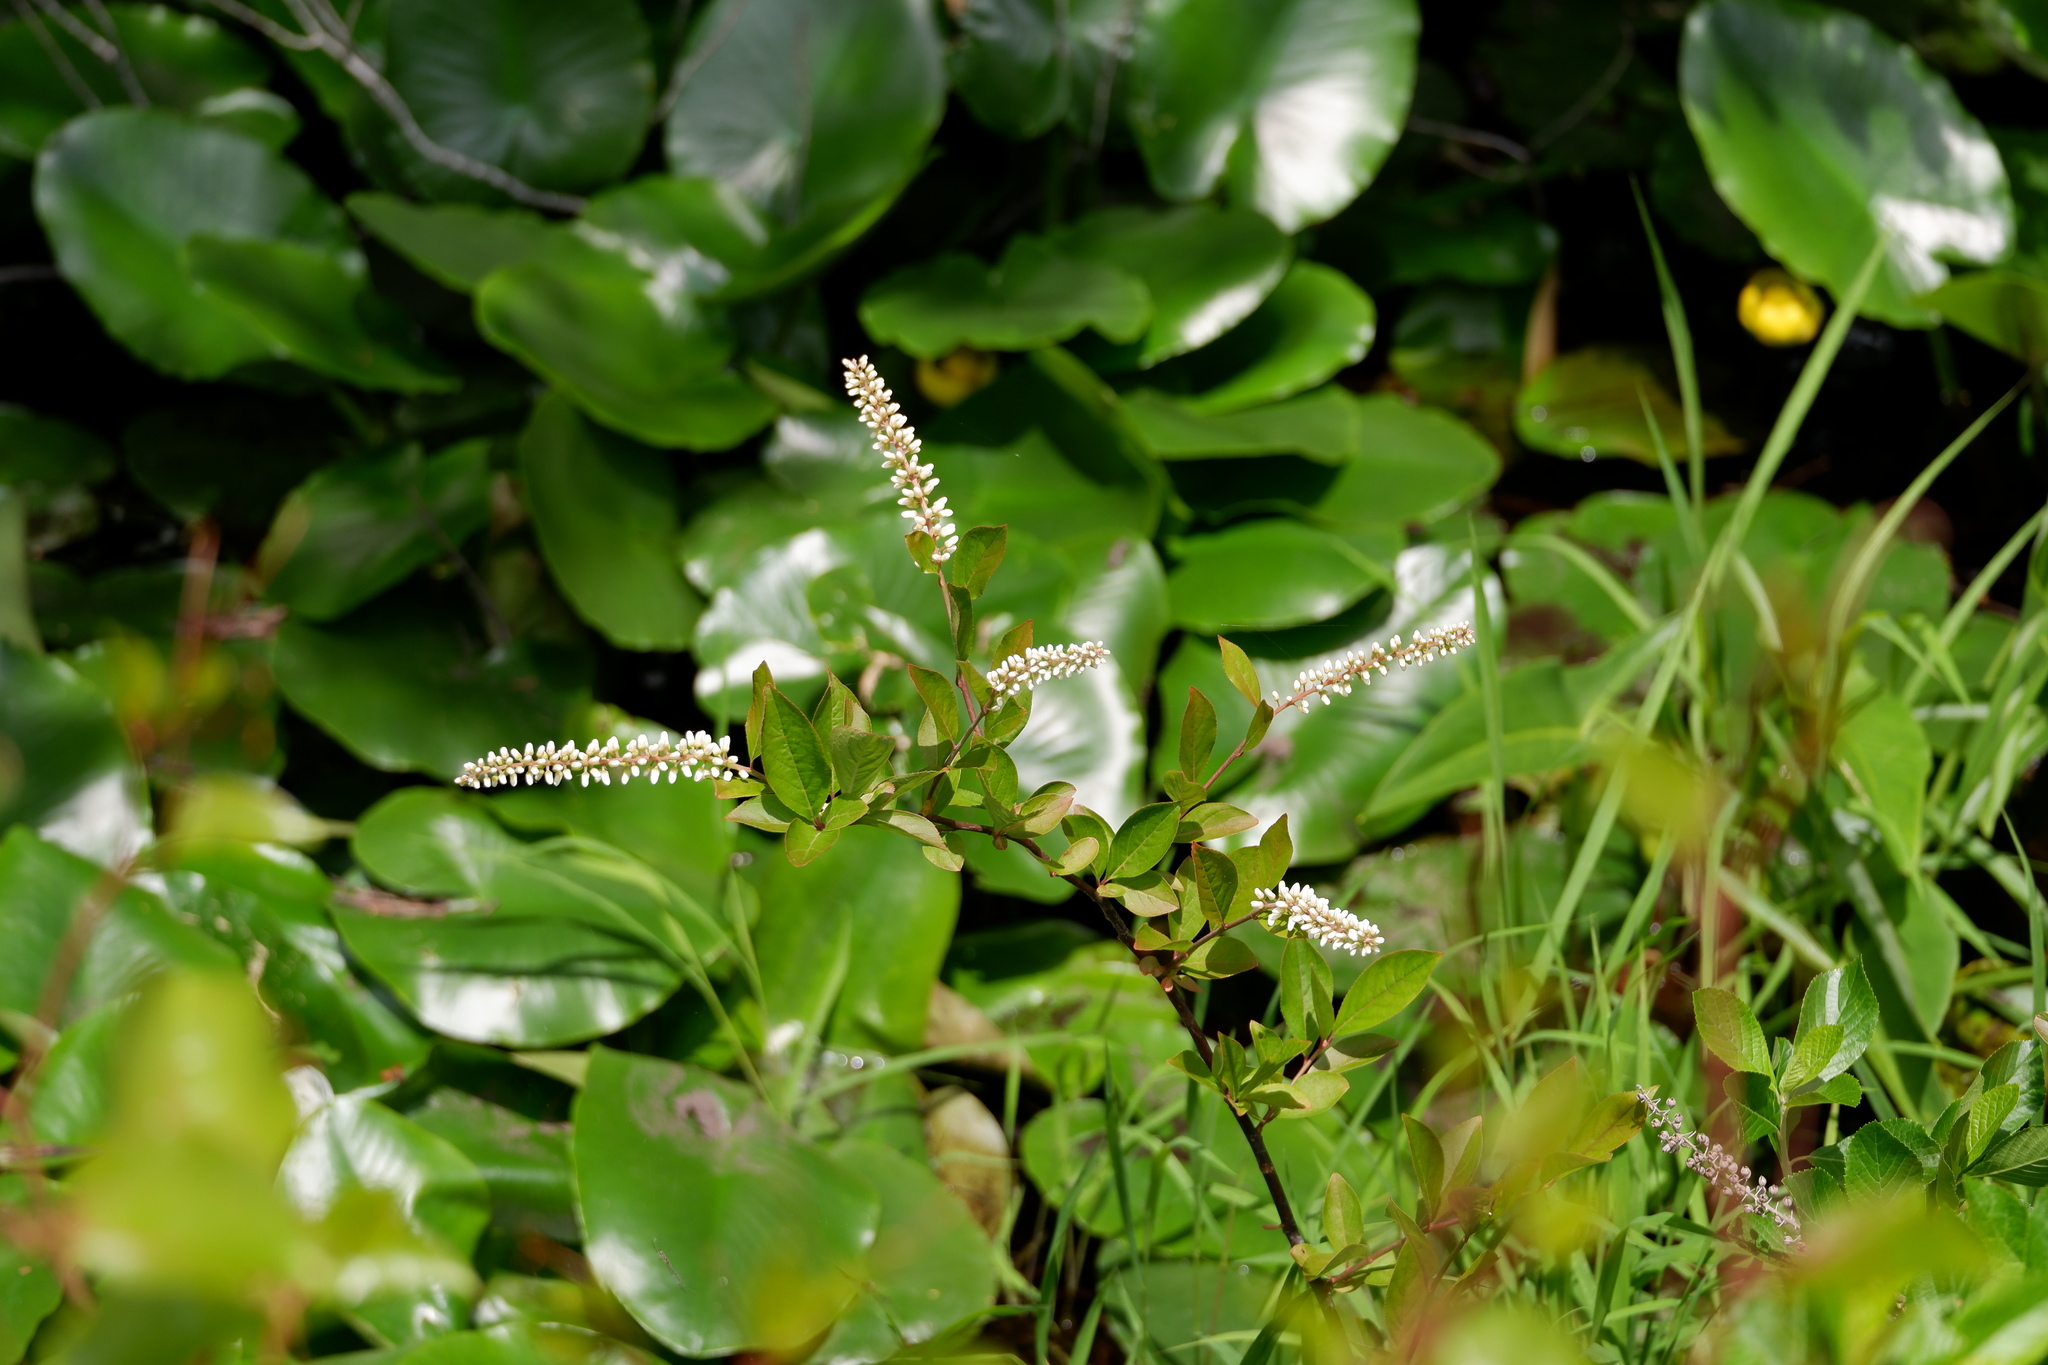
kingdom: Plantae
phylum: Tracheophyta
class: Magnoliopsida
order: Saxifragales
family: Iteaceae
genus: Itea
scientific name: Itea virginica
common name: Sweetspire
